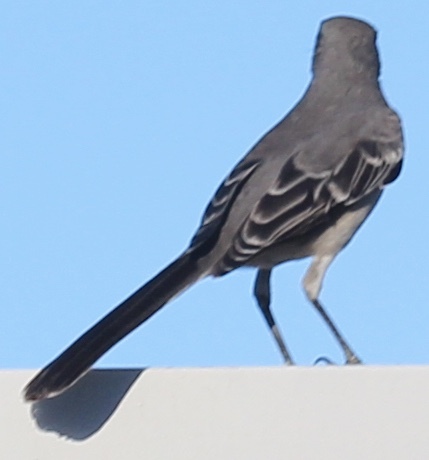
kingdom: Animalia
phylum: Chordata
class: Aves
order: Passeriformes
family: Mimidae
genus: Mimus
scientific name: Mimus polyglottos
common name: Northern mockingbird
